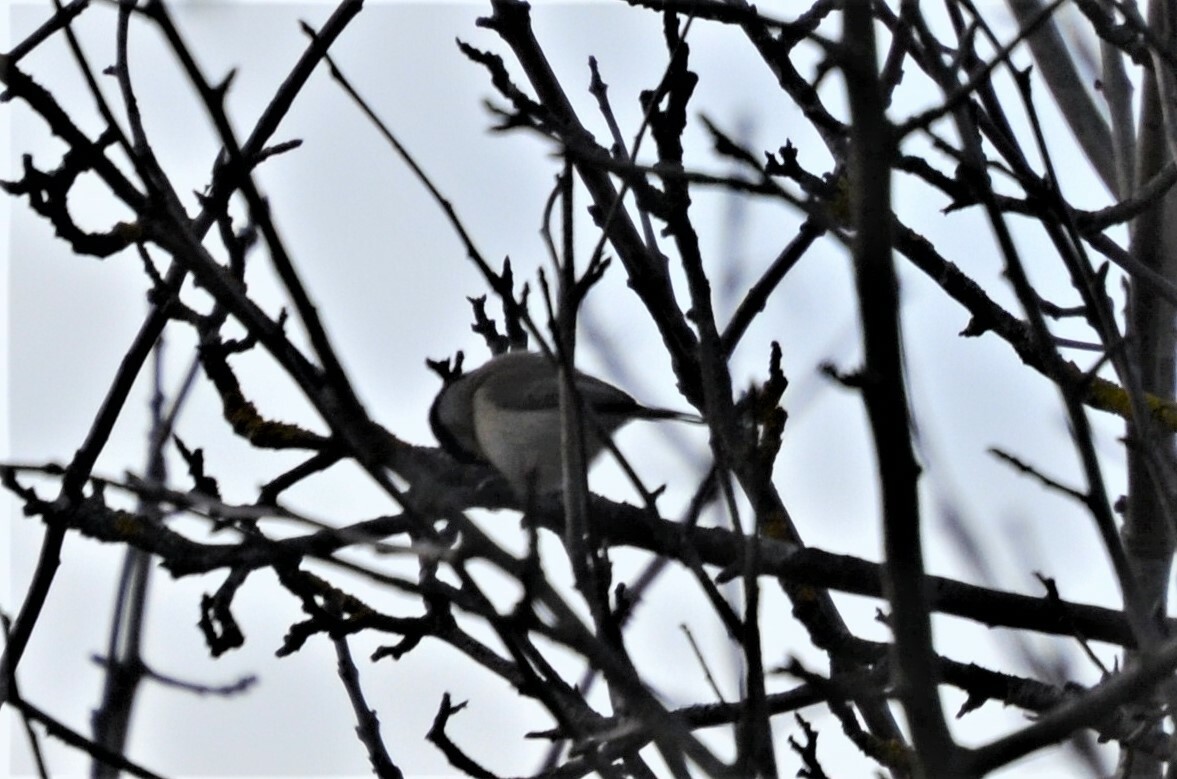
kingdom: Animalia
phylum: Chordata
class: Aves
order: Passeriformes
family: Paridae
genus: Poecile
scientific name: Poecile
